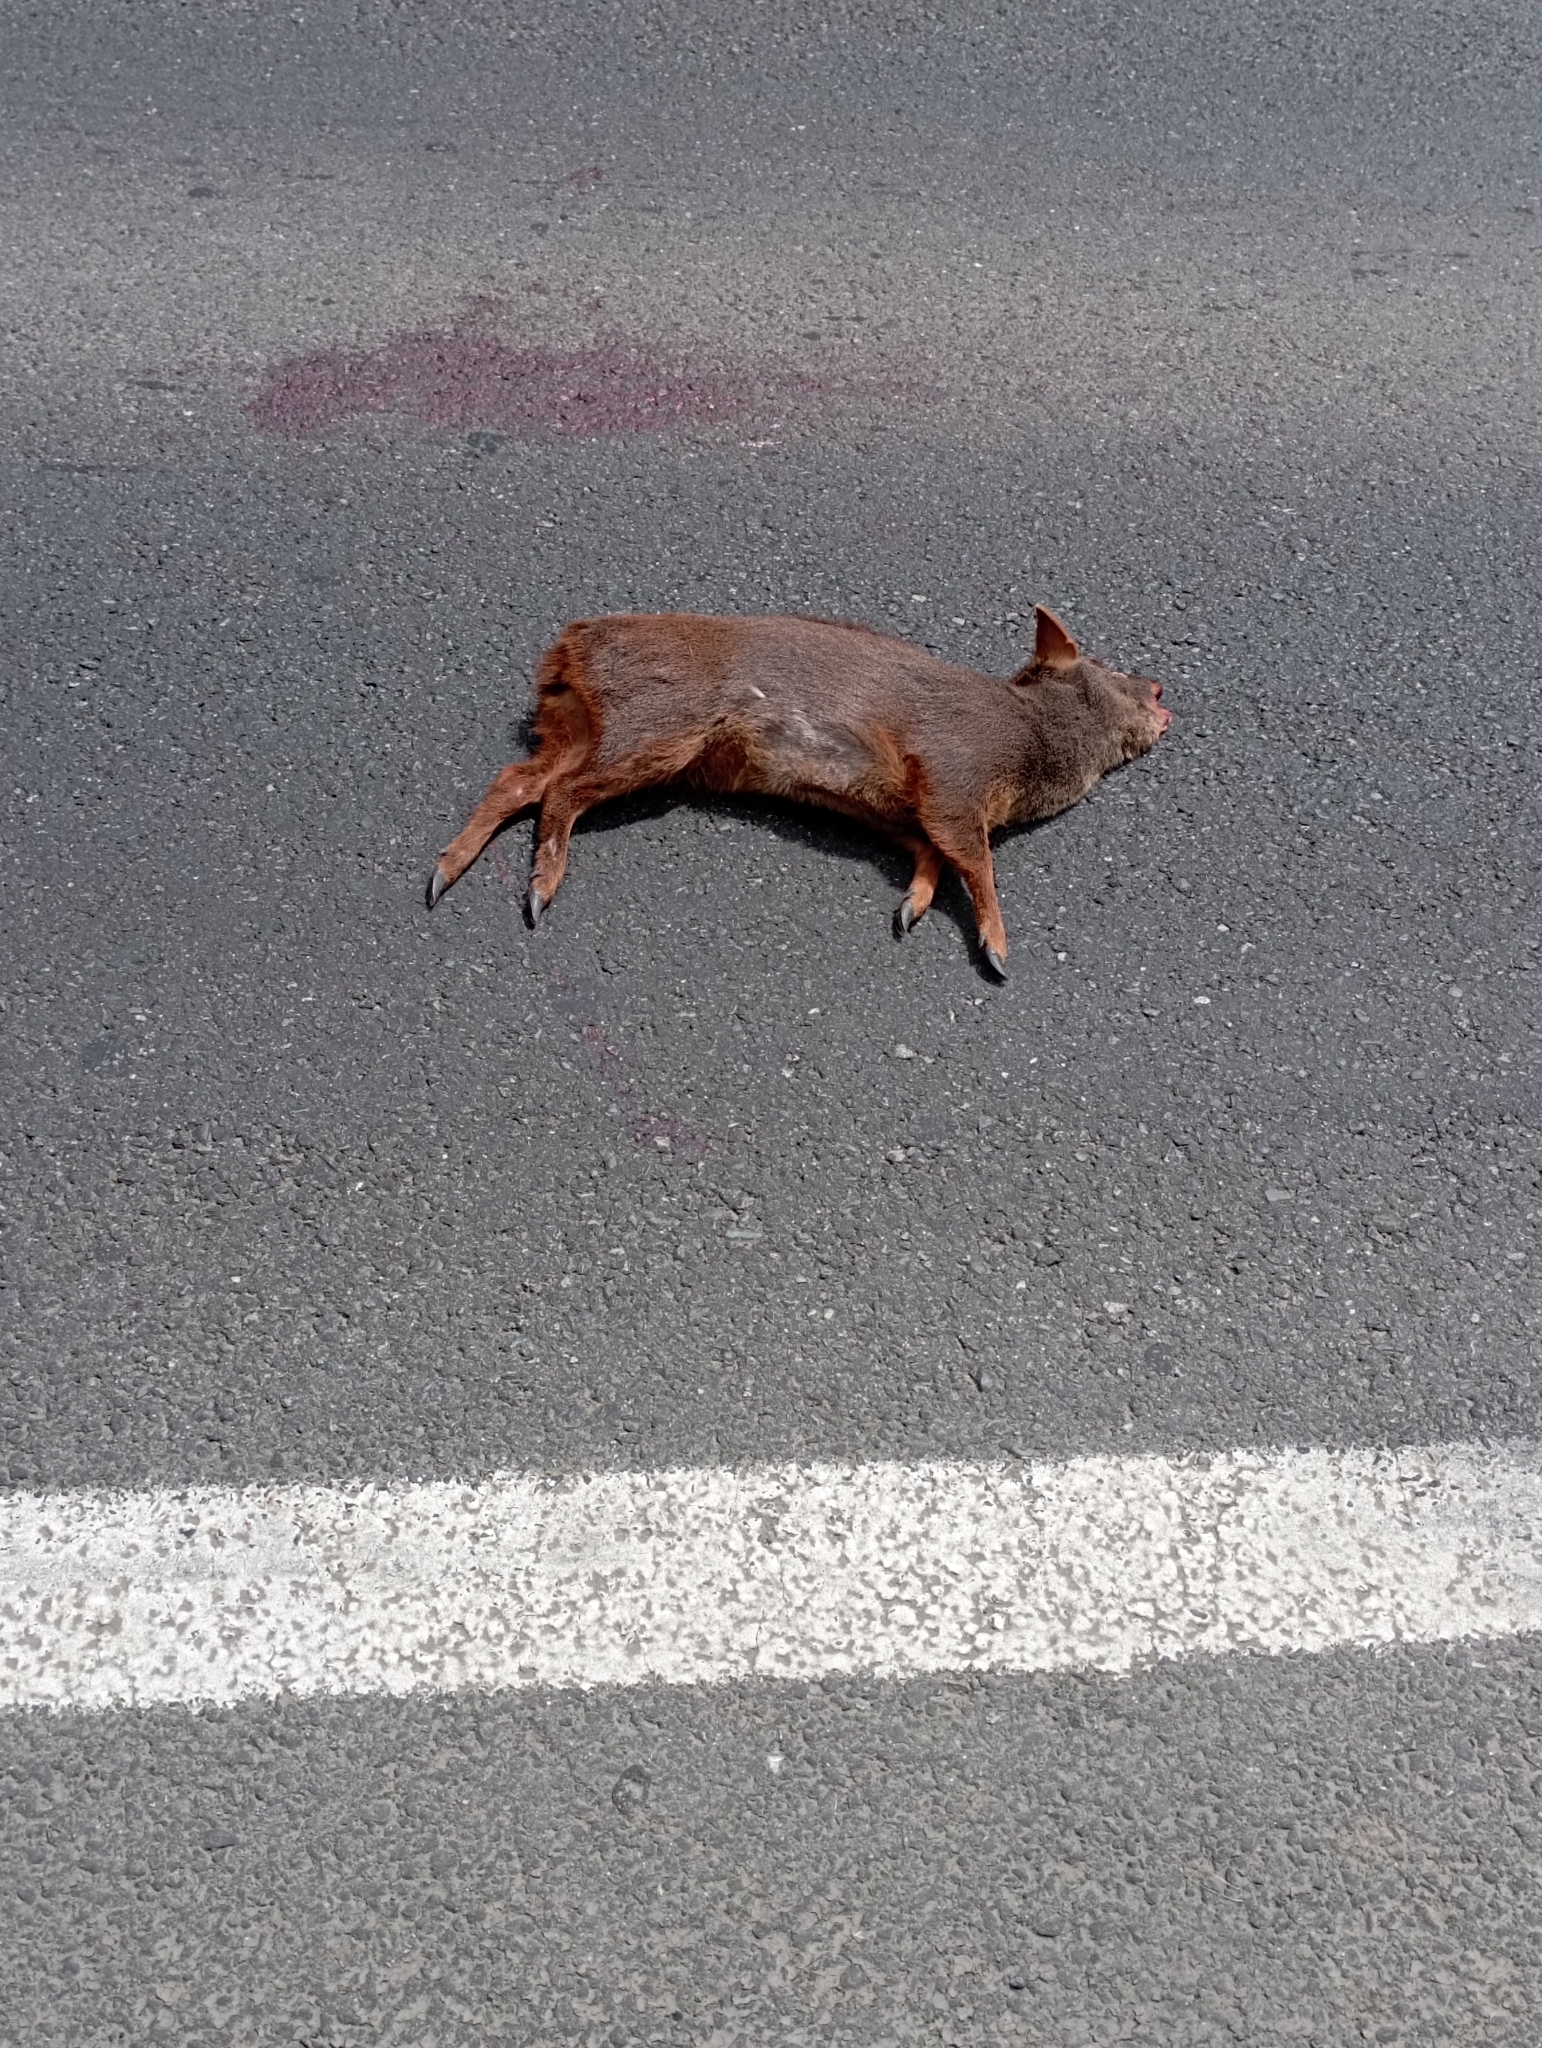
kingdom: Animalia
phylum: Chordata
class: Mammalia
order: Artiodactyla
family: Cervidae
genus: Pudu
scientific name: Pudu puda
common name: Southern pudu
